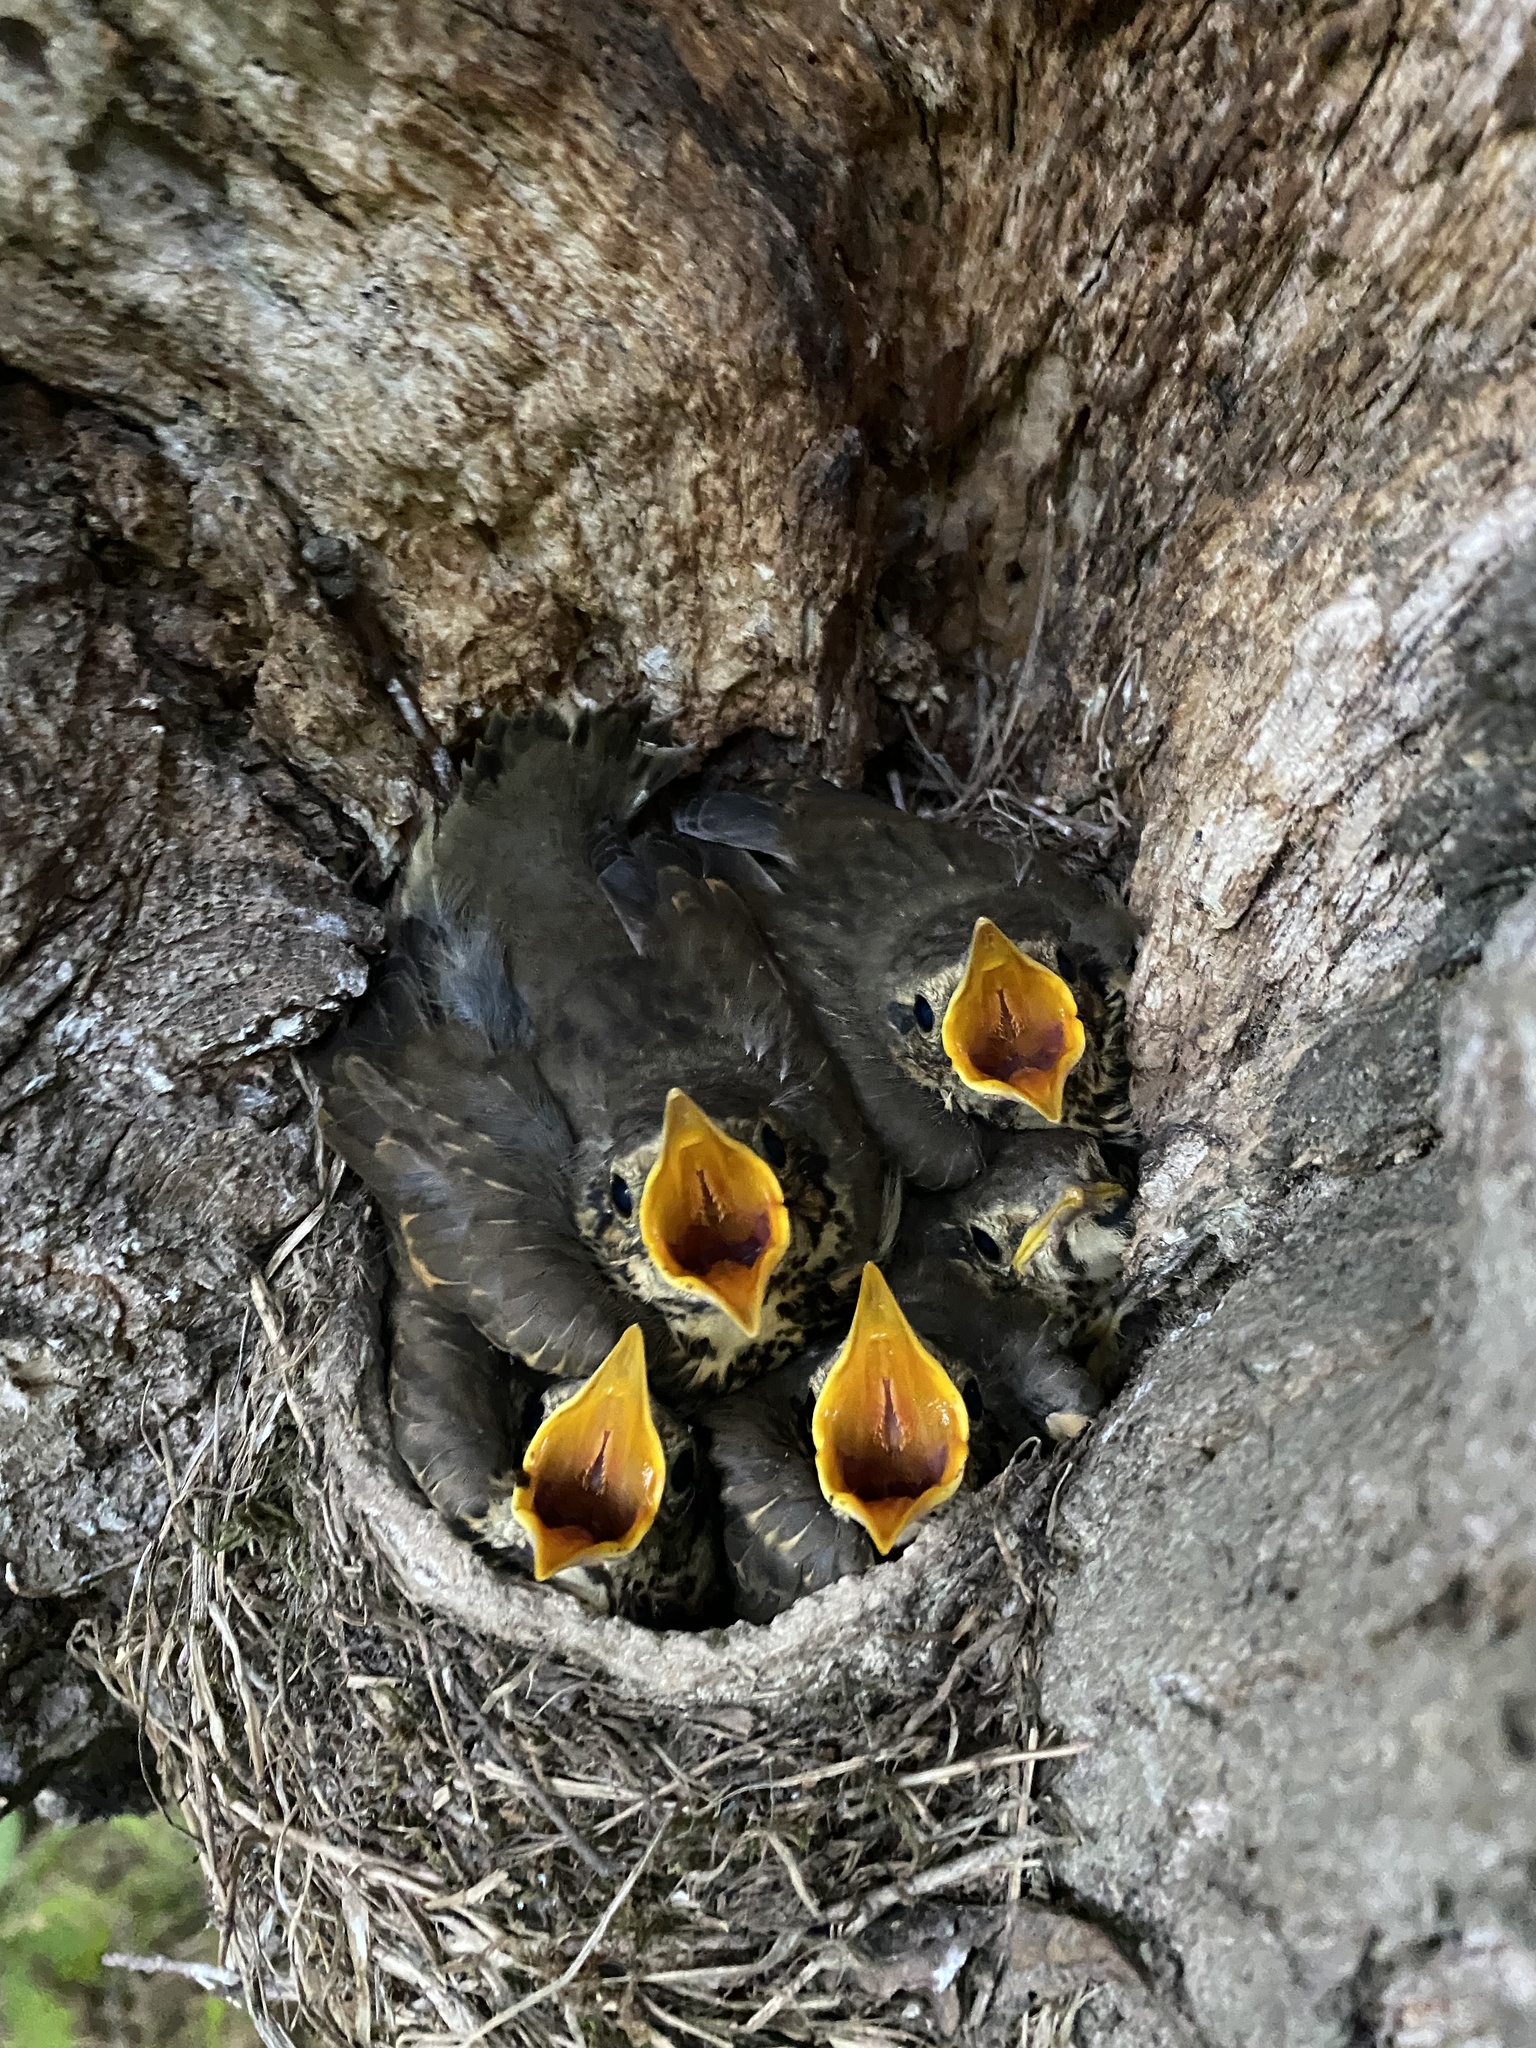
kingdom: Animalia
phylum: Chordata
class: Aves
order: Passeriformes
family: Turdidae
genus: Turdus
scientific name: Turdus philomelos
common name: Song thrush
